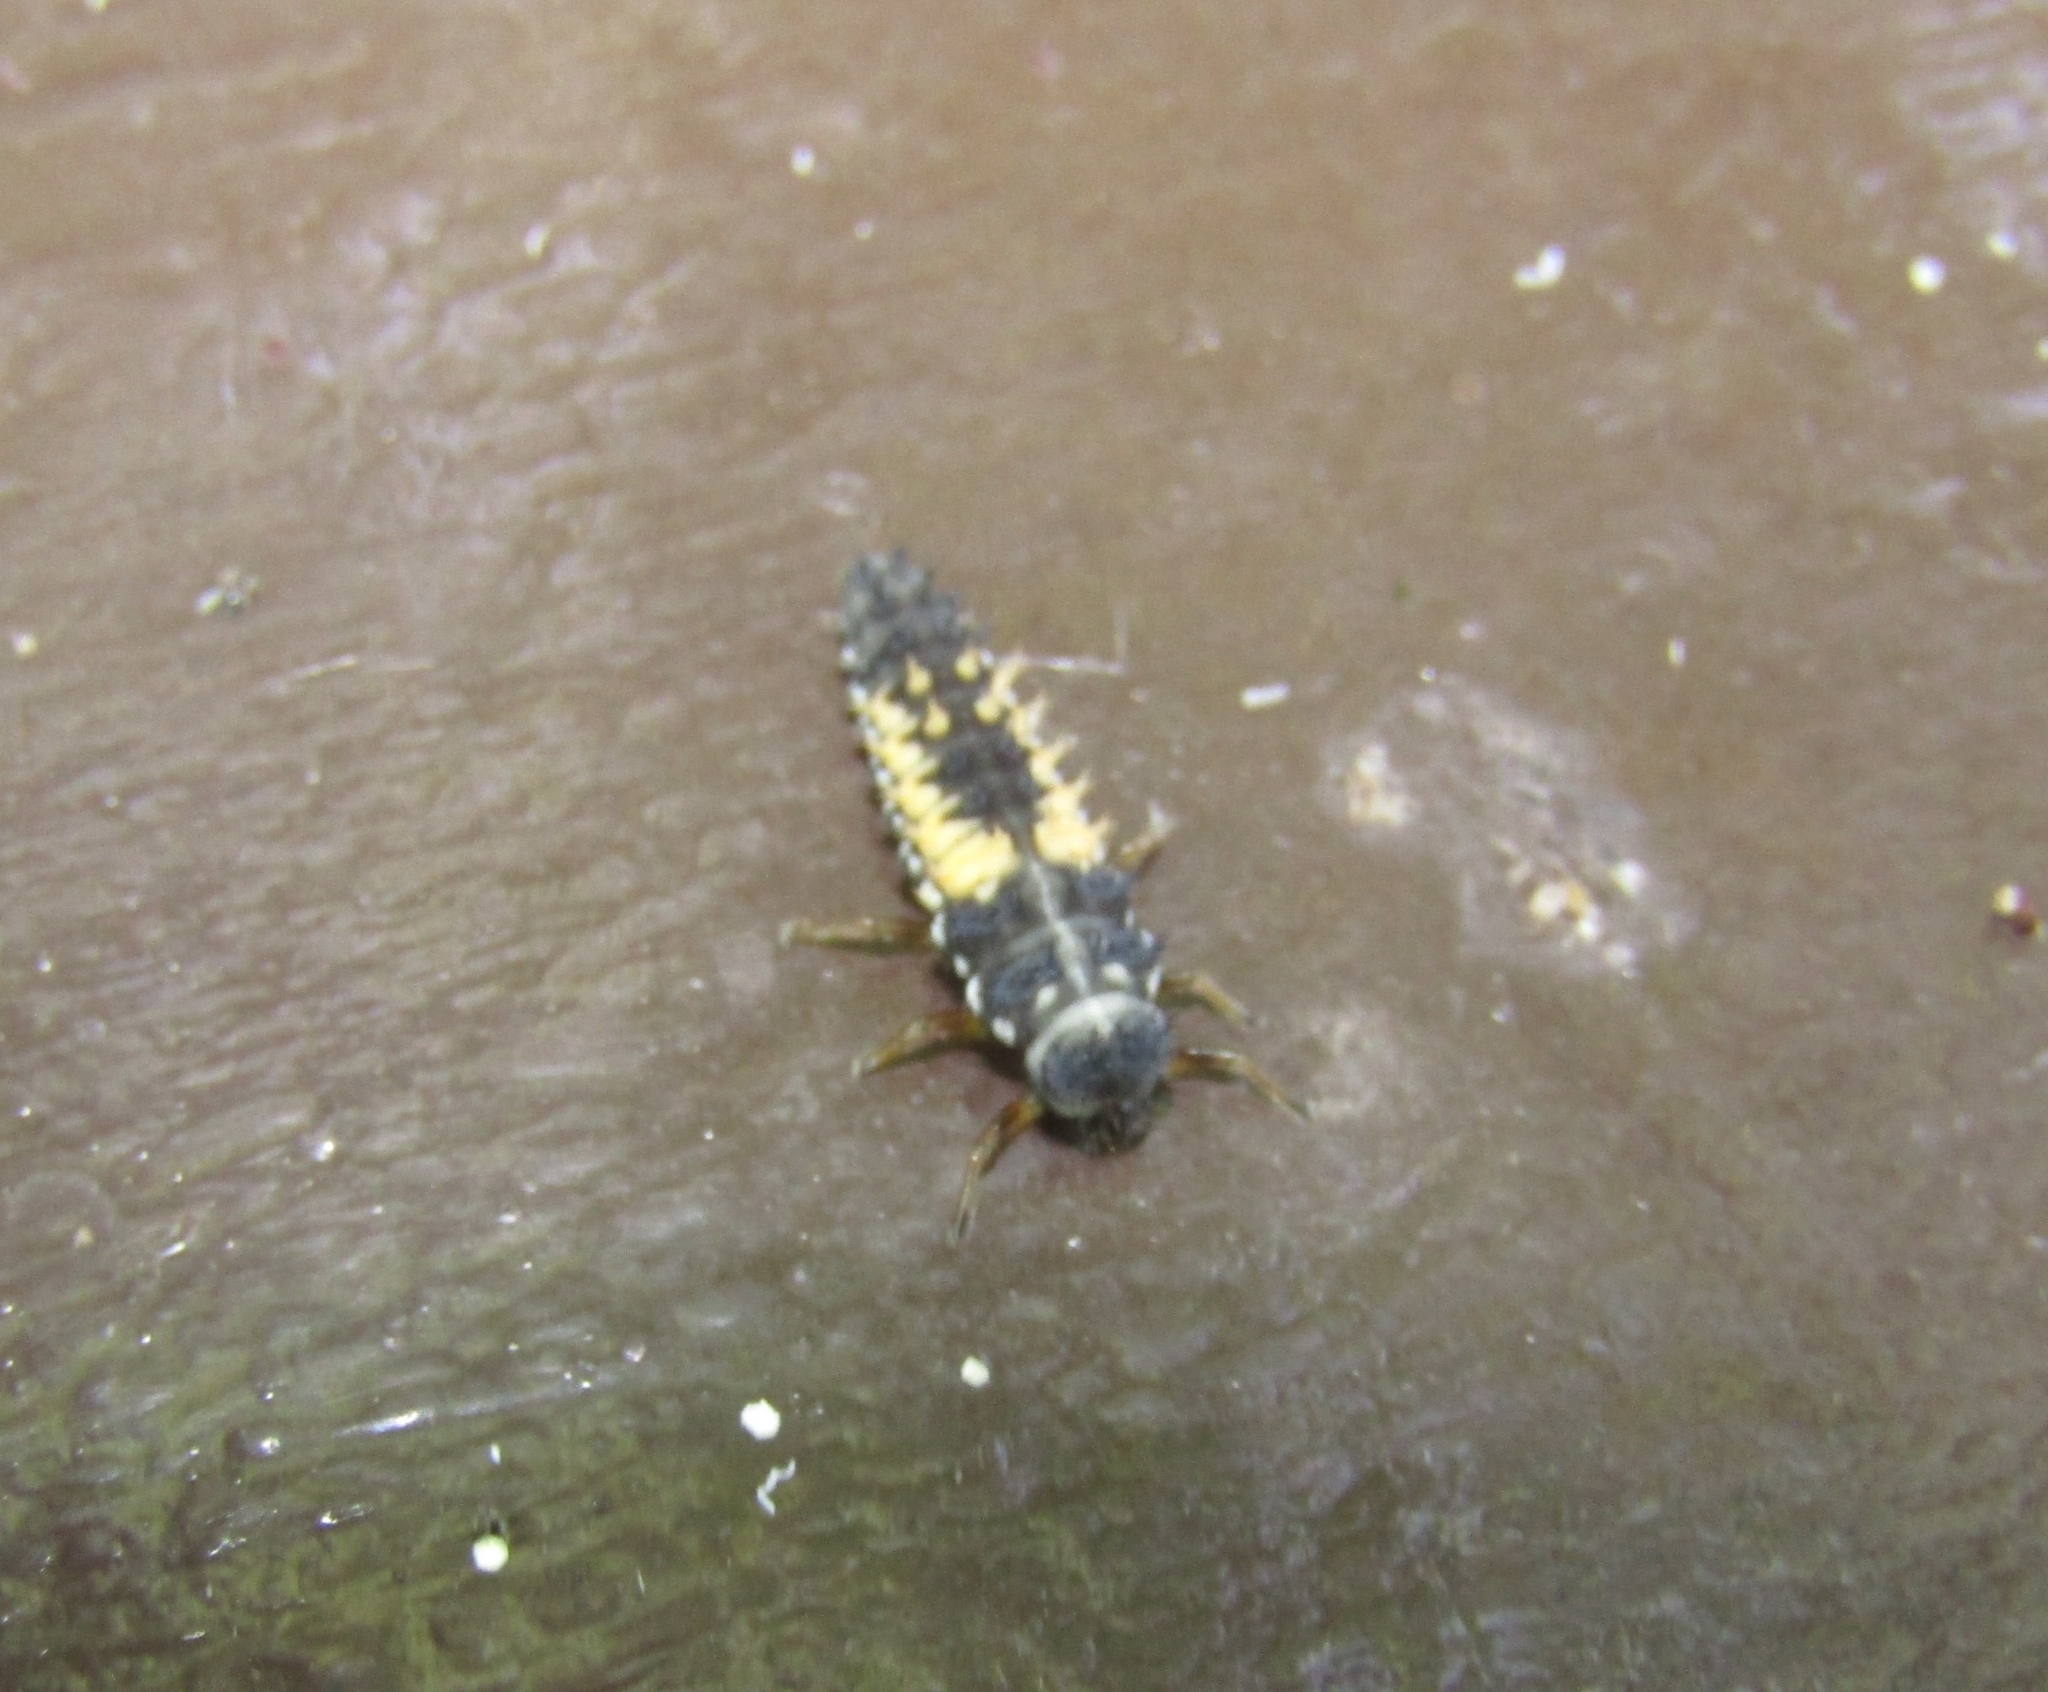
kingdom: Animalia
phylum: Arthropoda
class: Insecta
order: Coleoptera
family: Coccinellidae
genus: Harmonia
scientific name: Harmonia axyridis
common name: Harlequin ladybird
